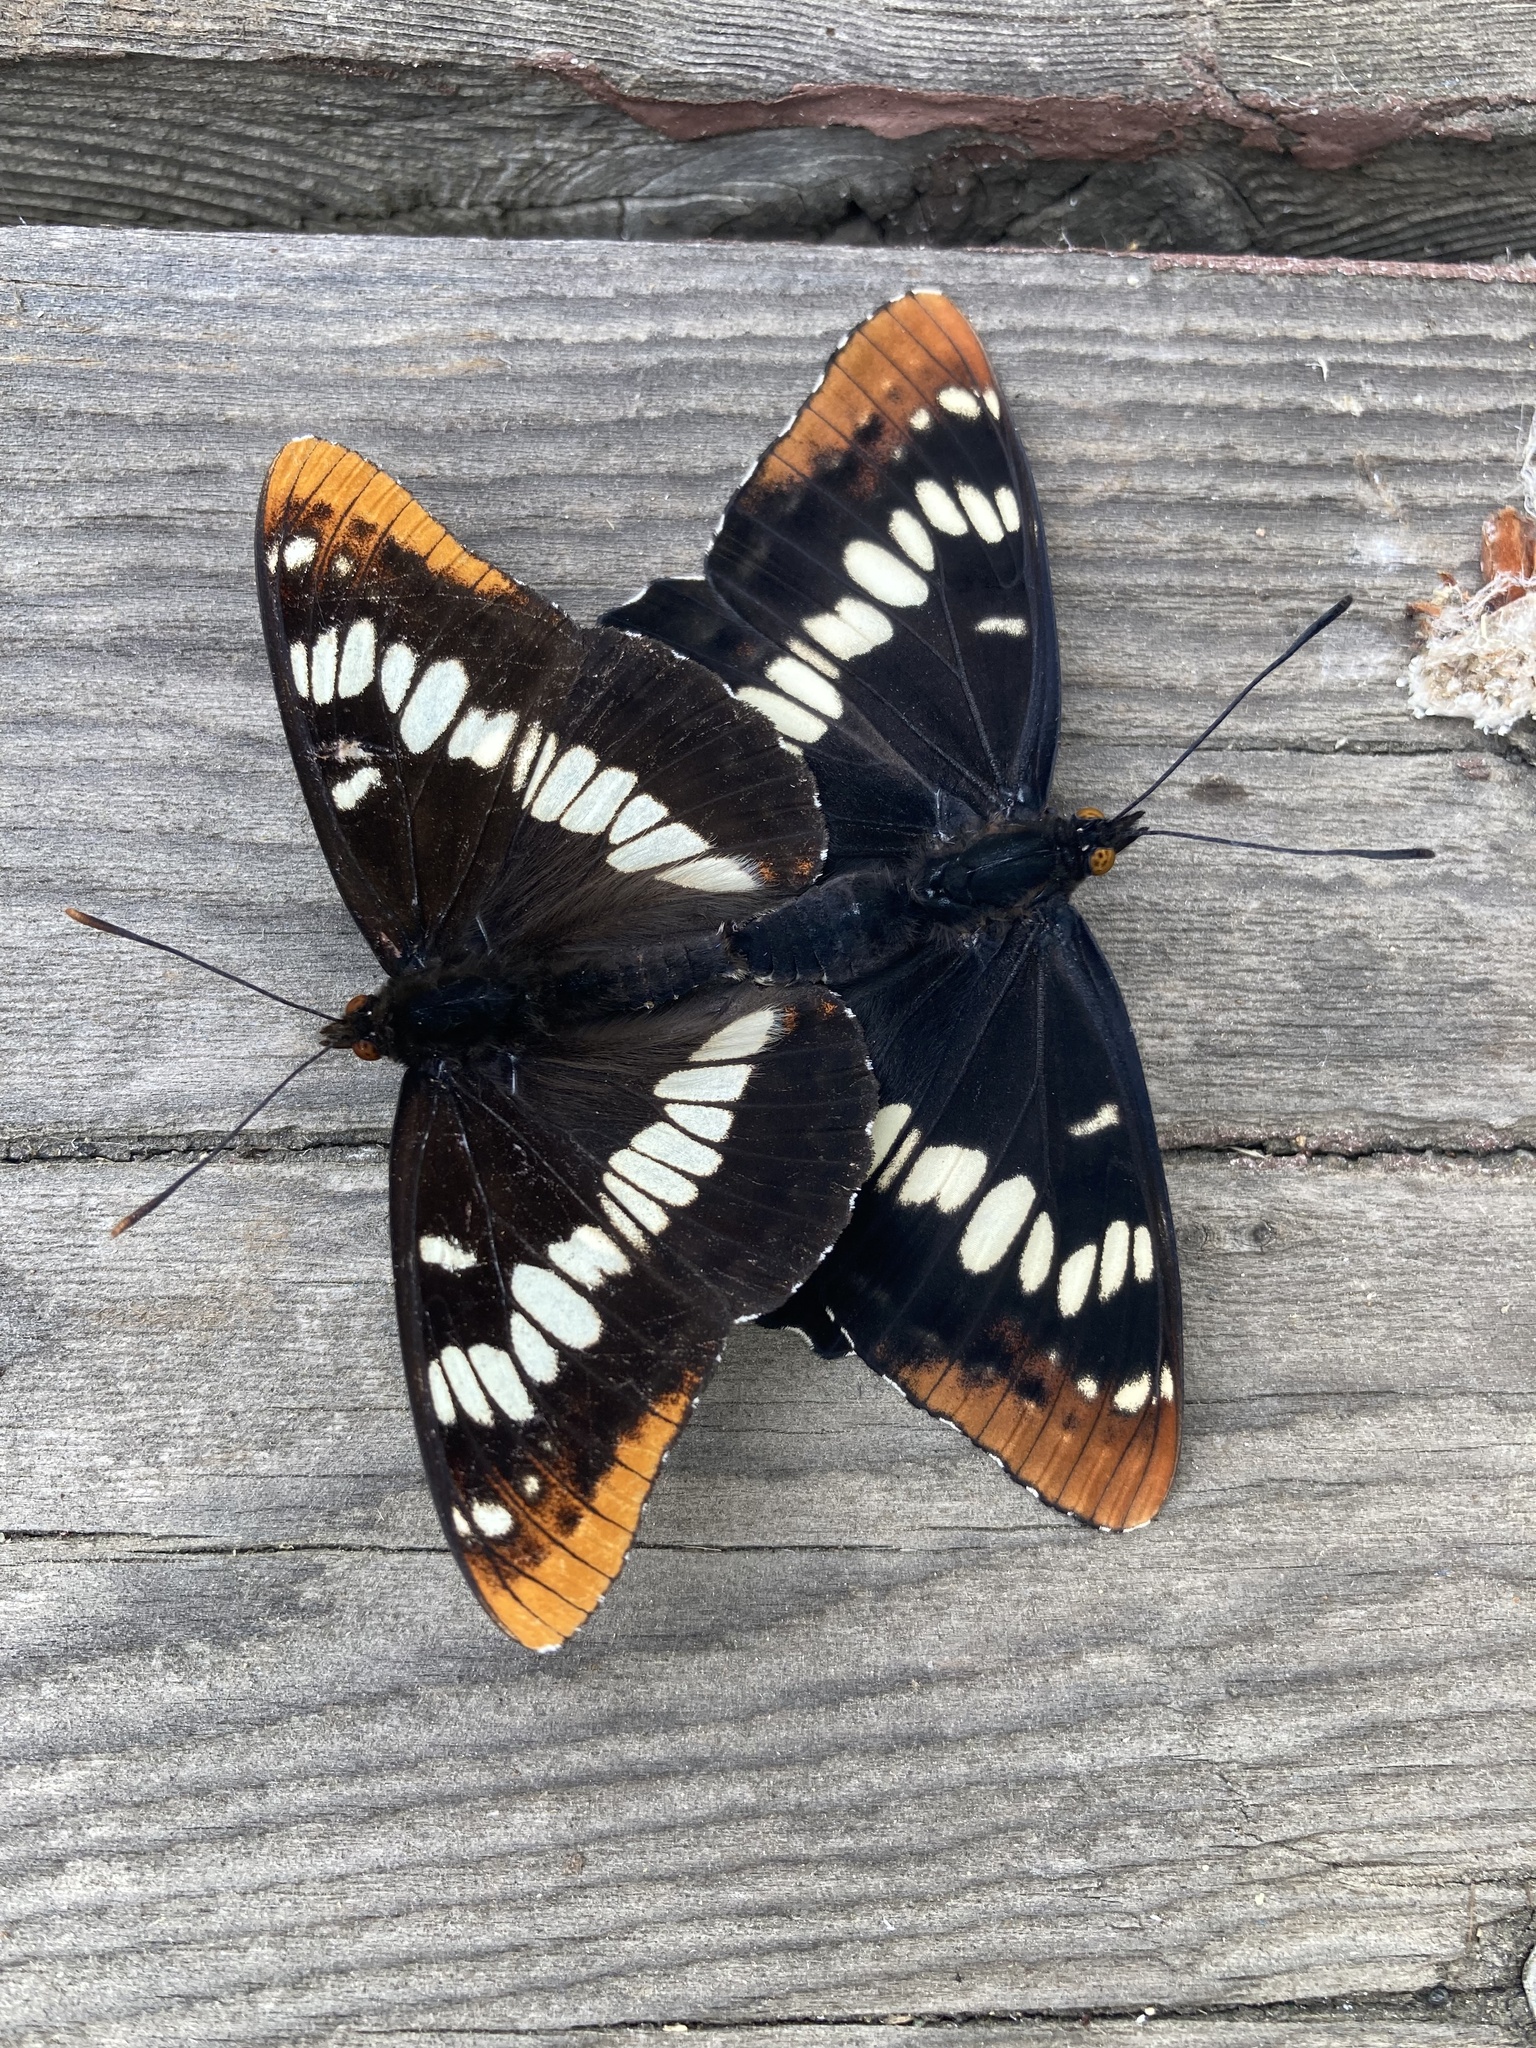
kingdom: Animalia
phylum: Arthropoda
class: Insecta
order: Lepidoptera
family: Nymphalidae
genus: Limenitis
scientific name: Limenitis lorquini
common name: Lorquin's admiral
